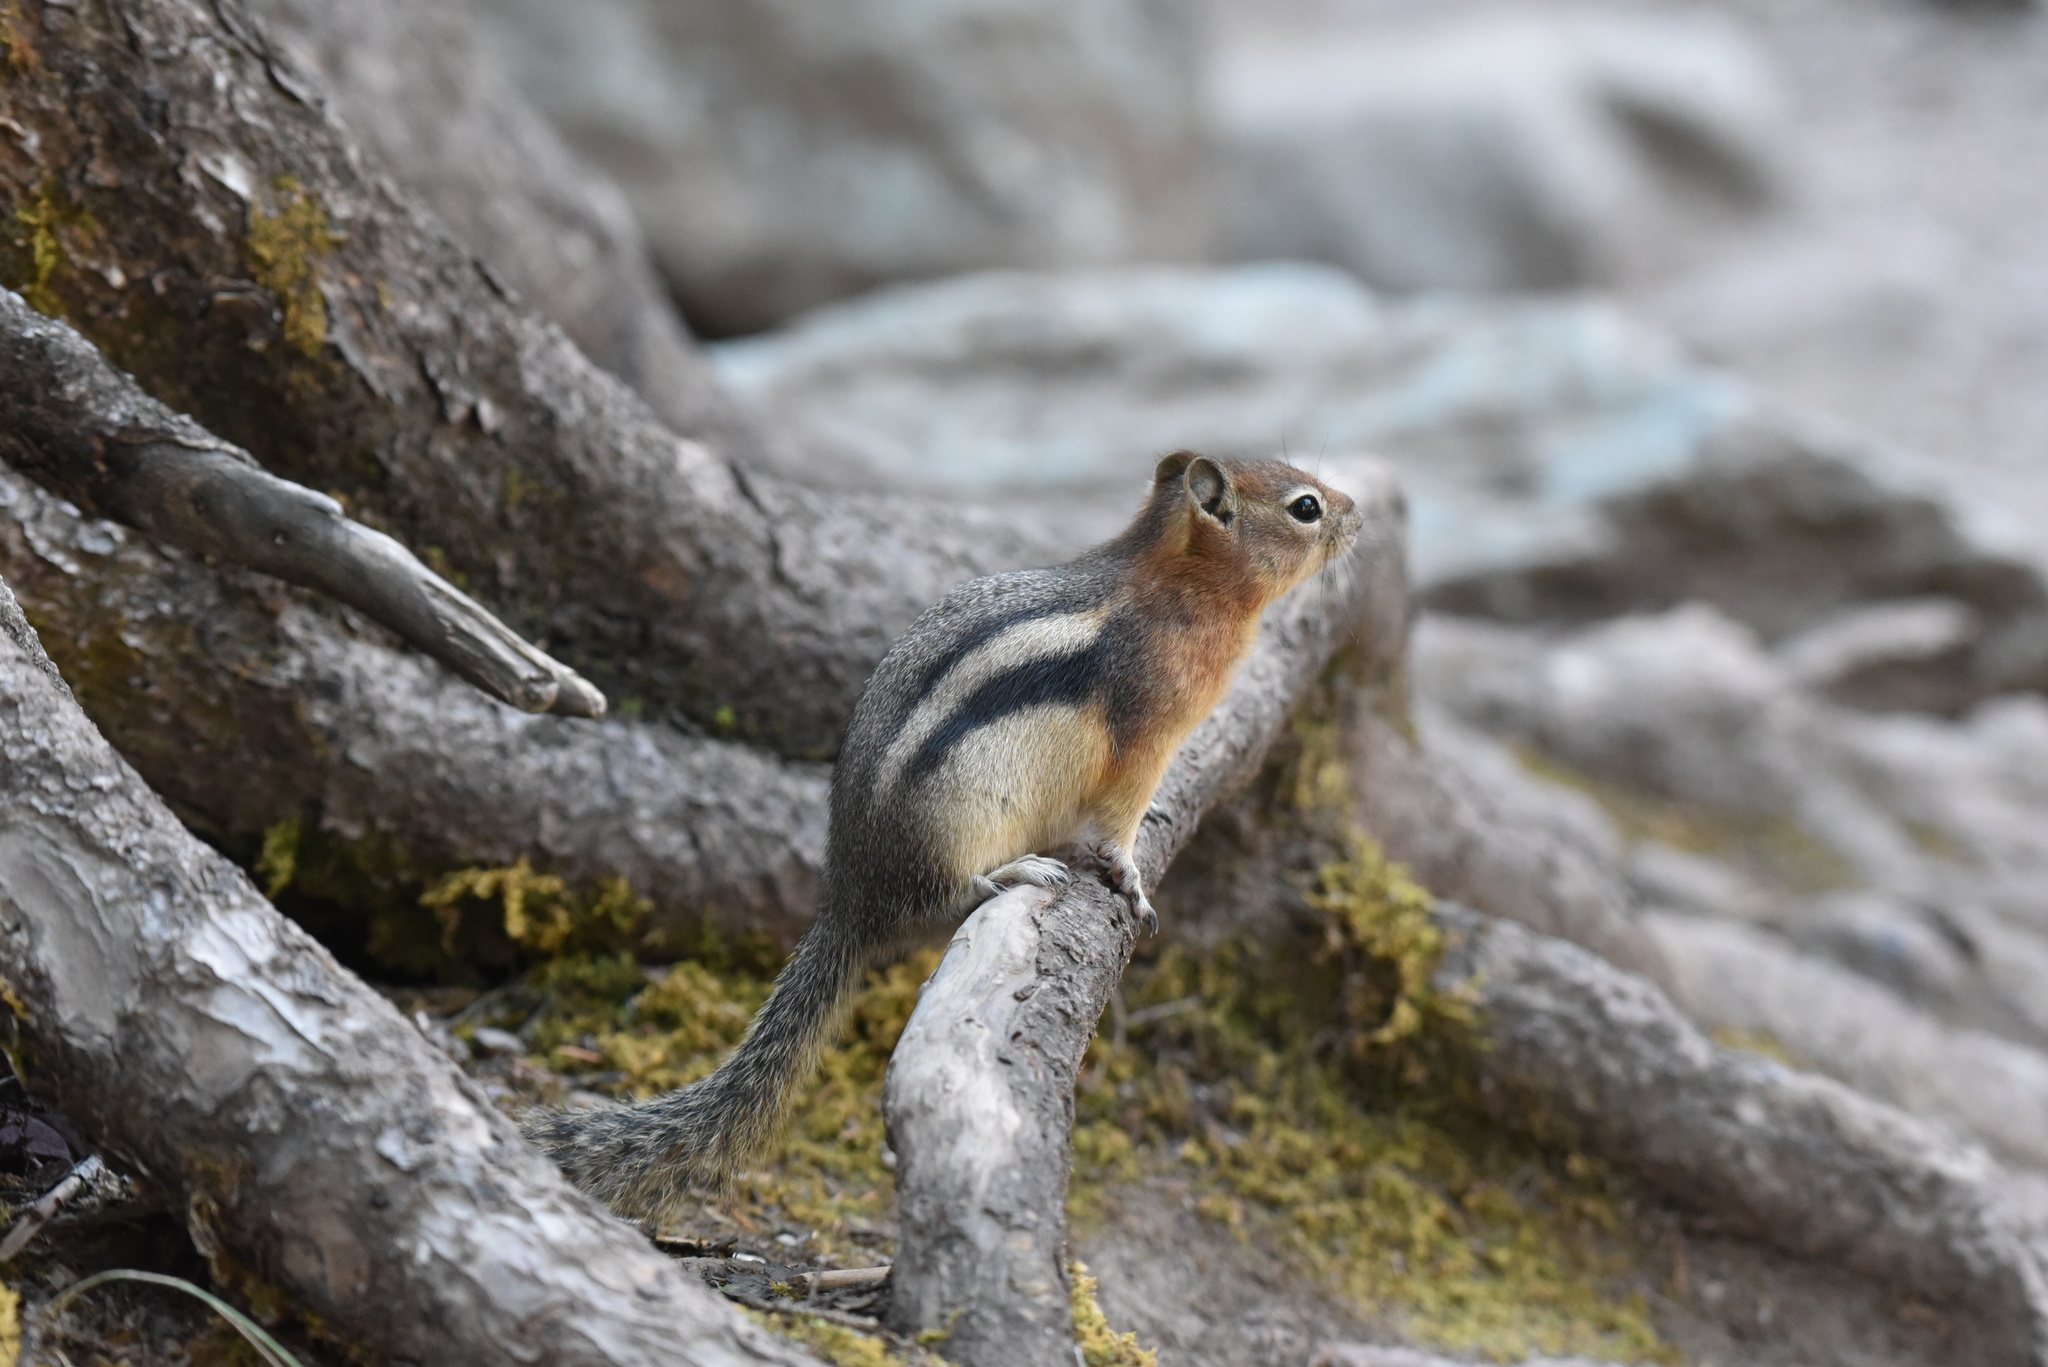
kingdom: Animalia
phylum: Chordata
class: Mammalia
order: Rodentia
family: Sciuridae
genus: Callospermophilus
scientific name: Callospermophilus lateralis
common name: Golden-mantled ground squirrel
